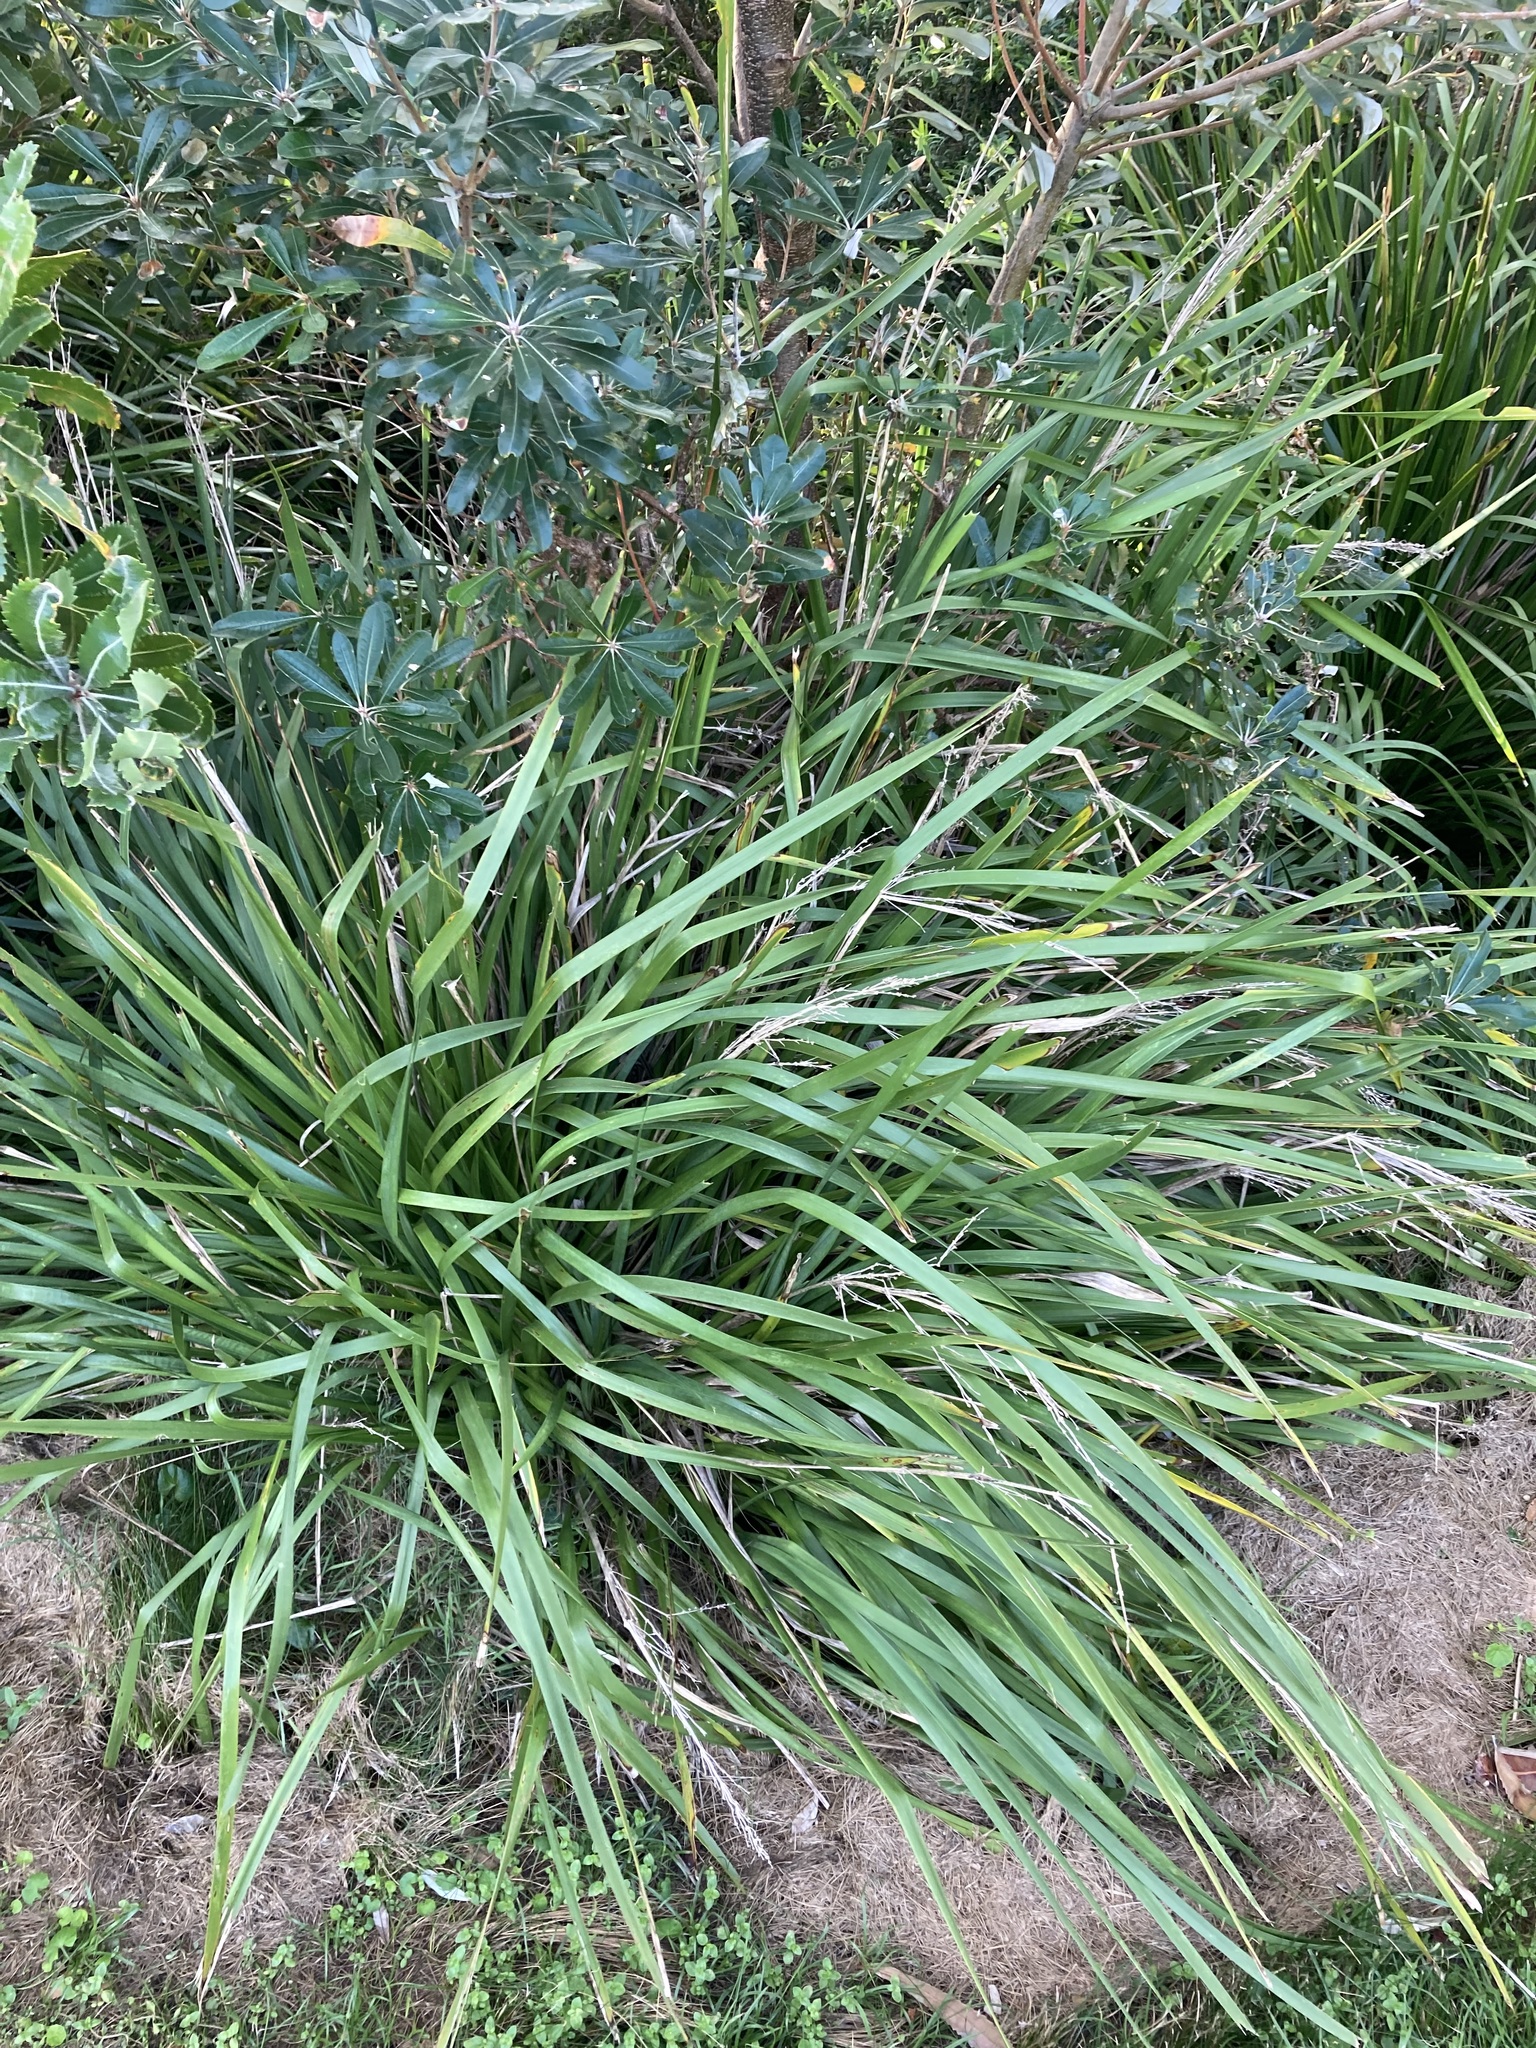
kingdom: Plantae
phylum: Tracheophyta
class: Liliopsida
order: Asparagales
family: Asparagaceae
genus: Lomandra
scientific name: Lomandra longifolia
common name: Longleaf mat-rush
